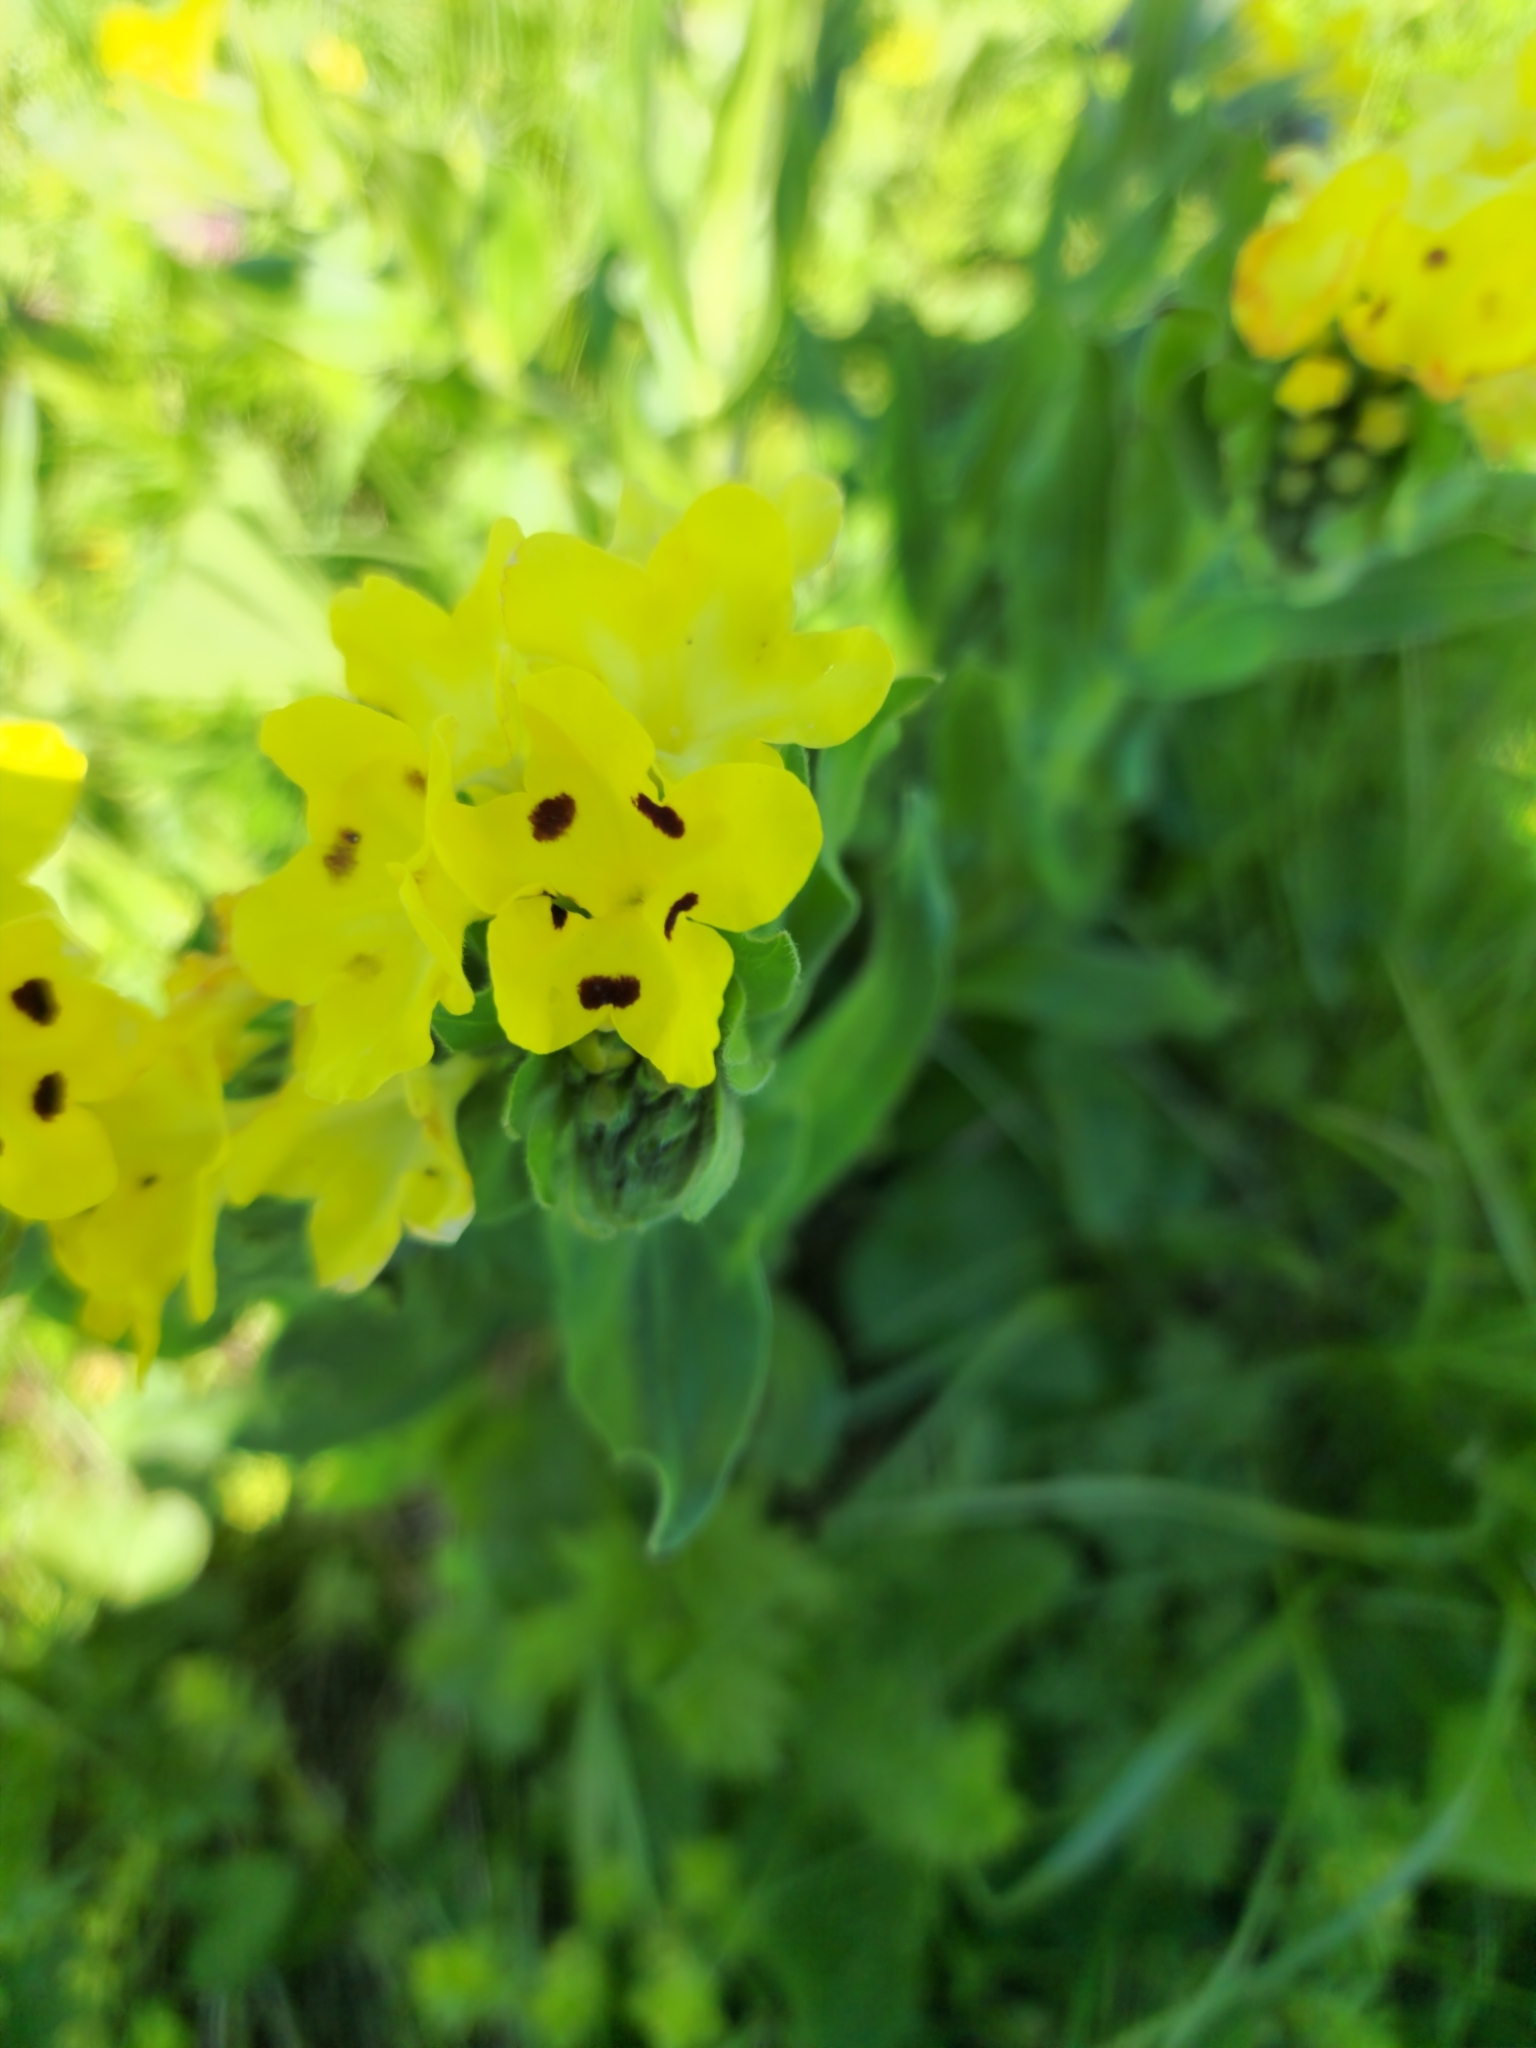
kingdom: Plantae
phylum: Tracheophyta
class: Magnoliopsida
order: Boraginales
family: Boraginaceae
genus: Huynhia
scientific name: Huynhia pulchra
